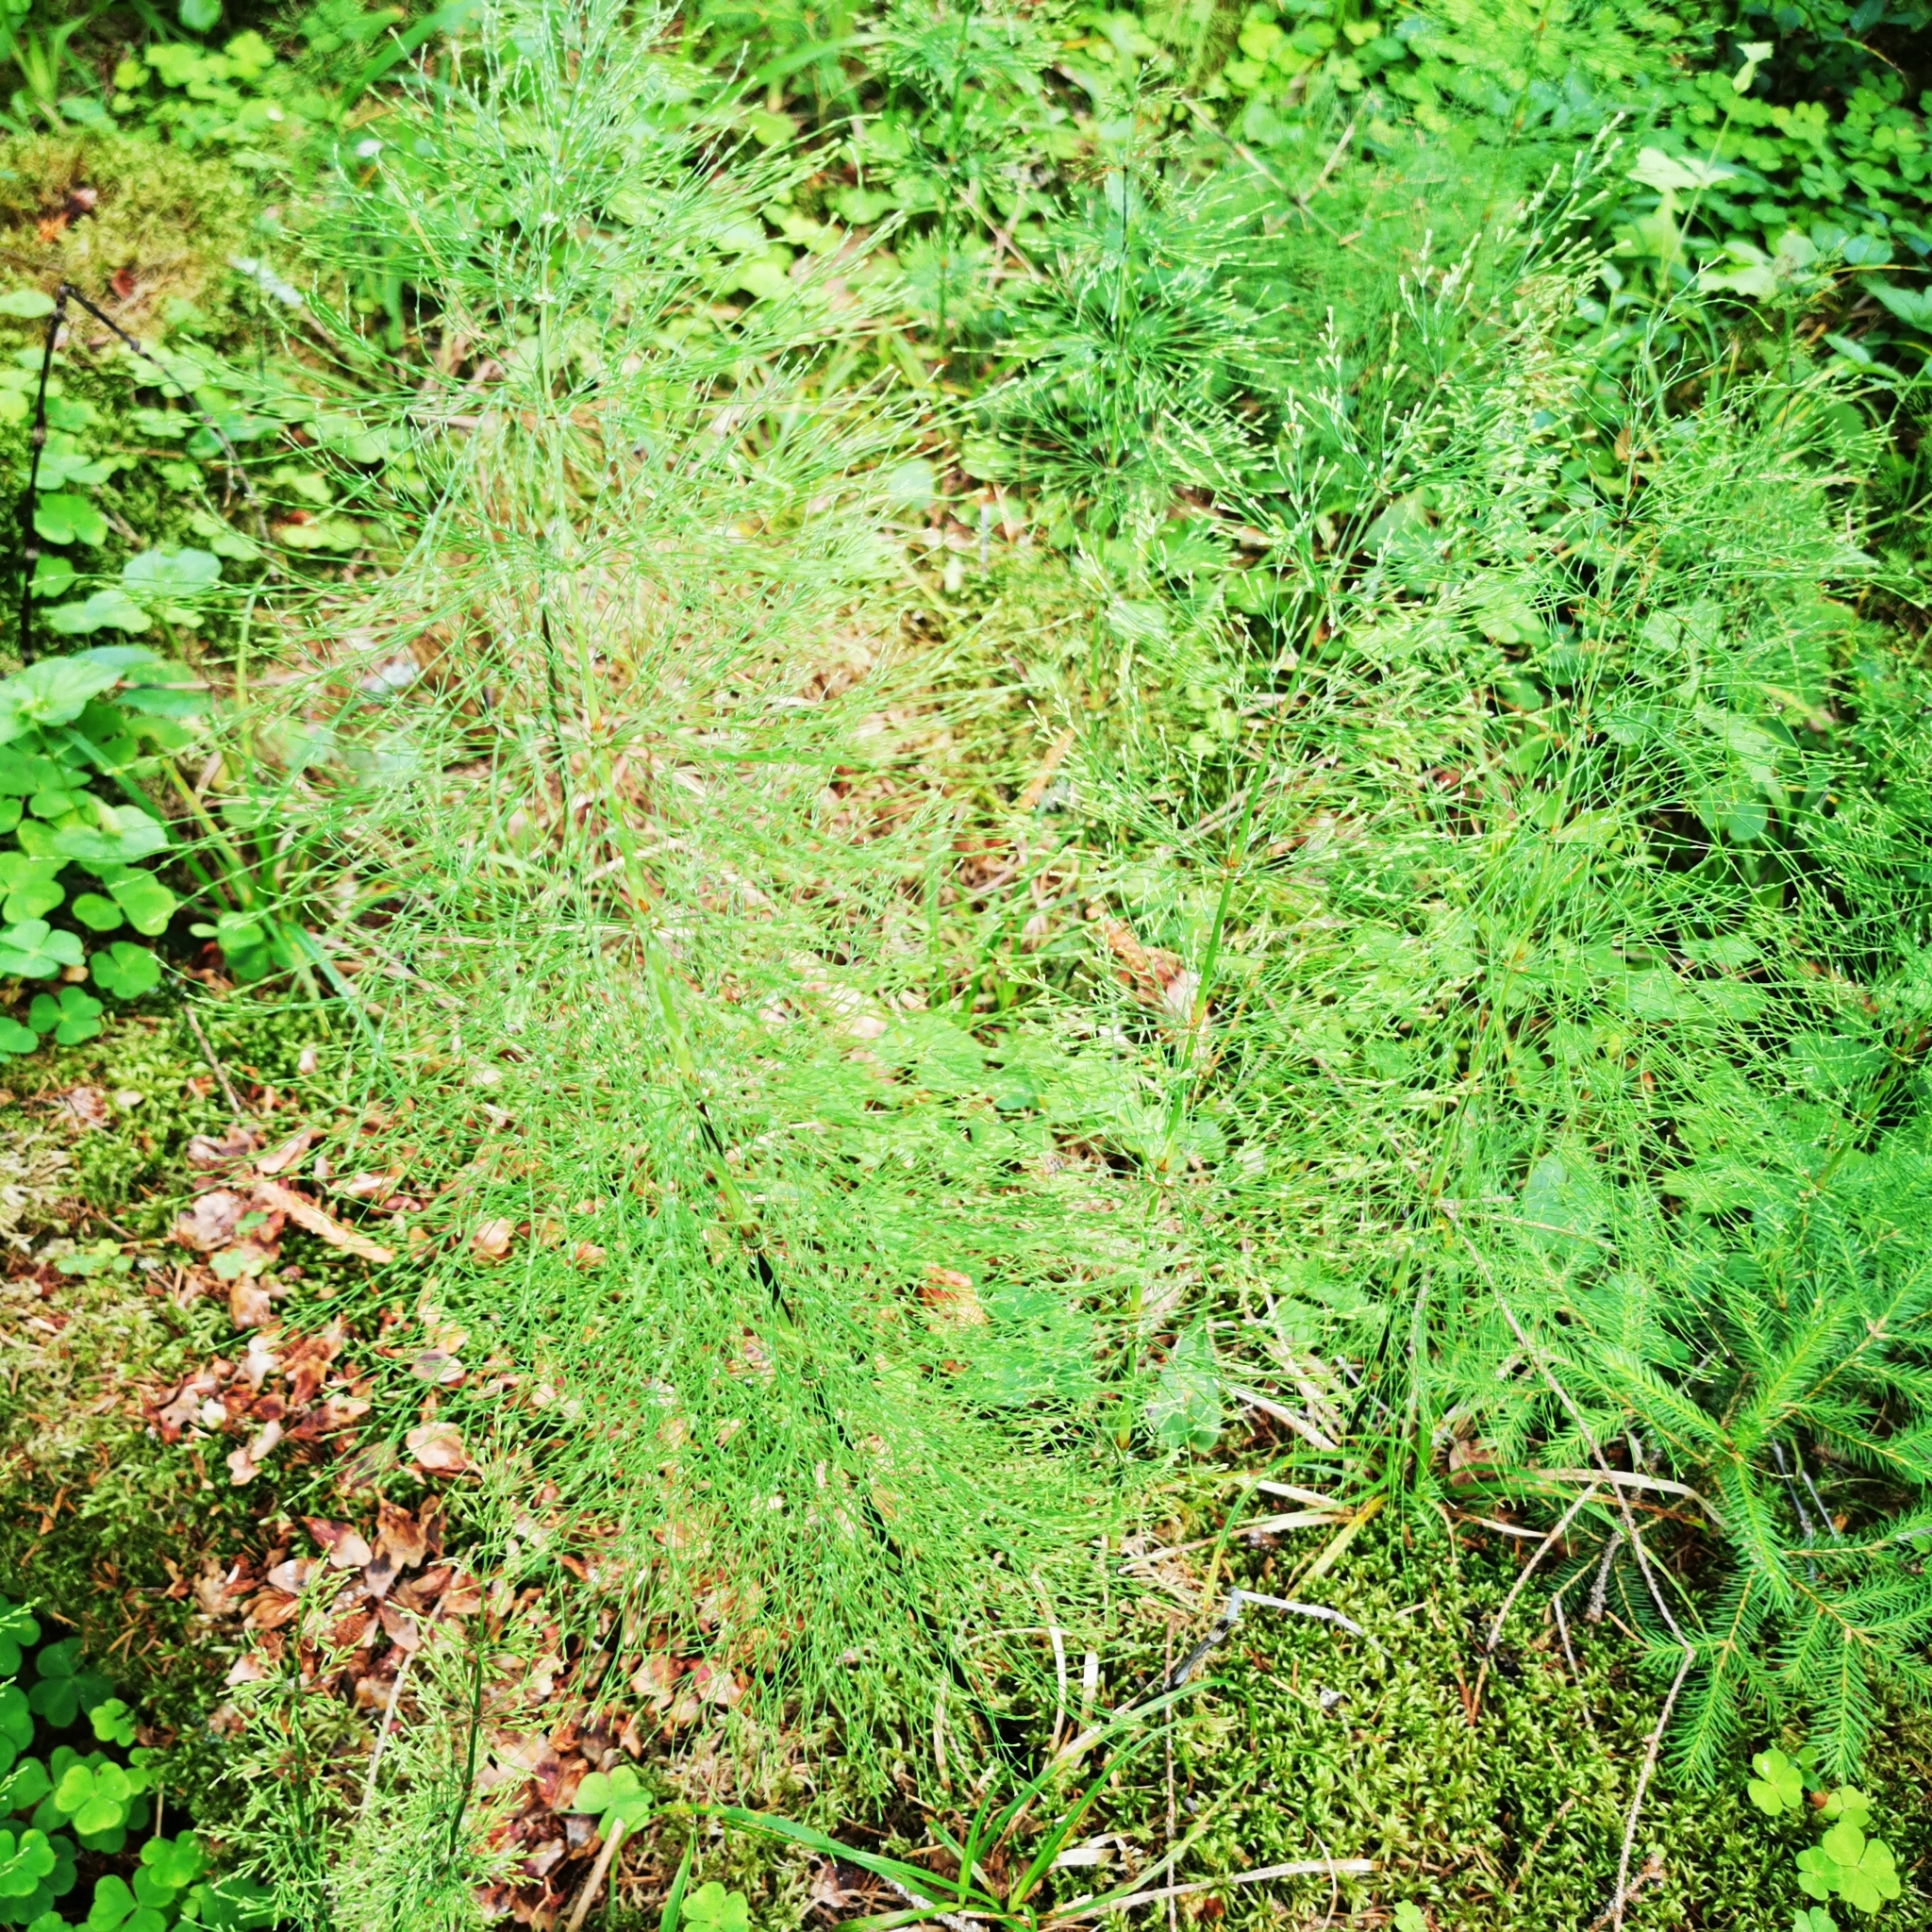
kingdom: Plantae
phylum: Tracheophyta
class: Polypodiopsida
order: Equisetales
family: Equisetaceae
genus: Equisetum
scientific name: Equisetum sylvaticum
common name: Wood horsetail
